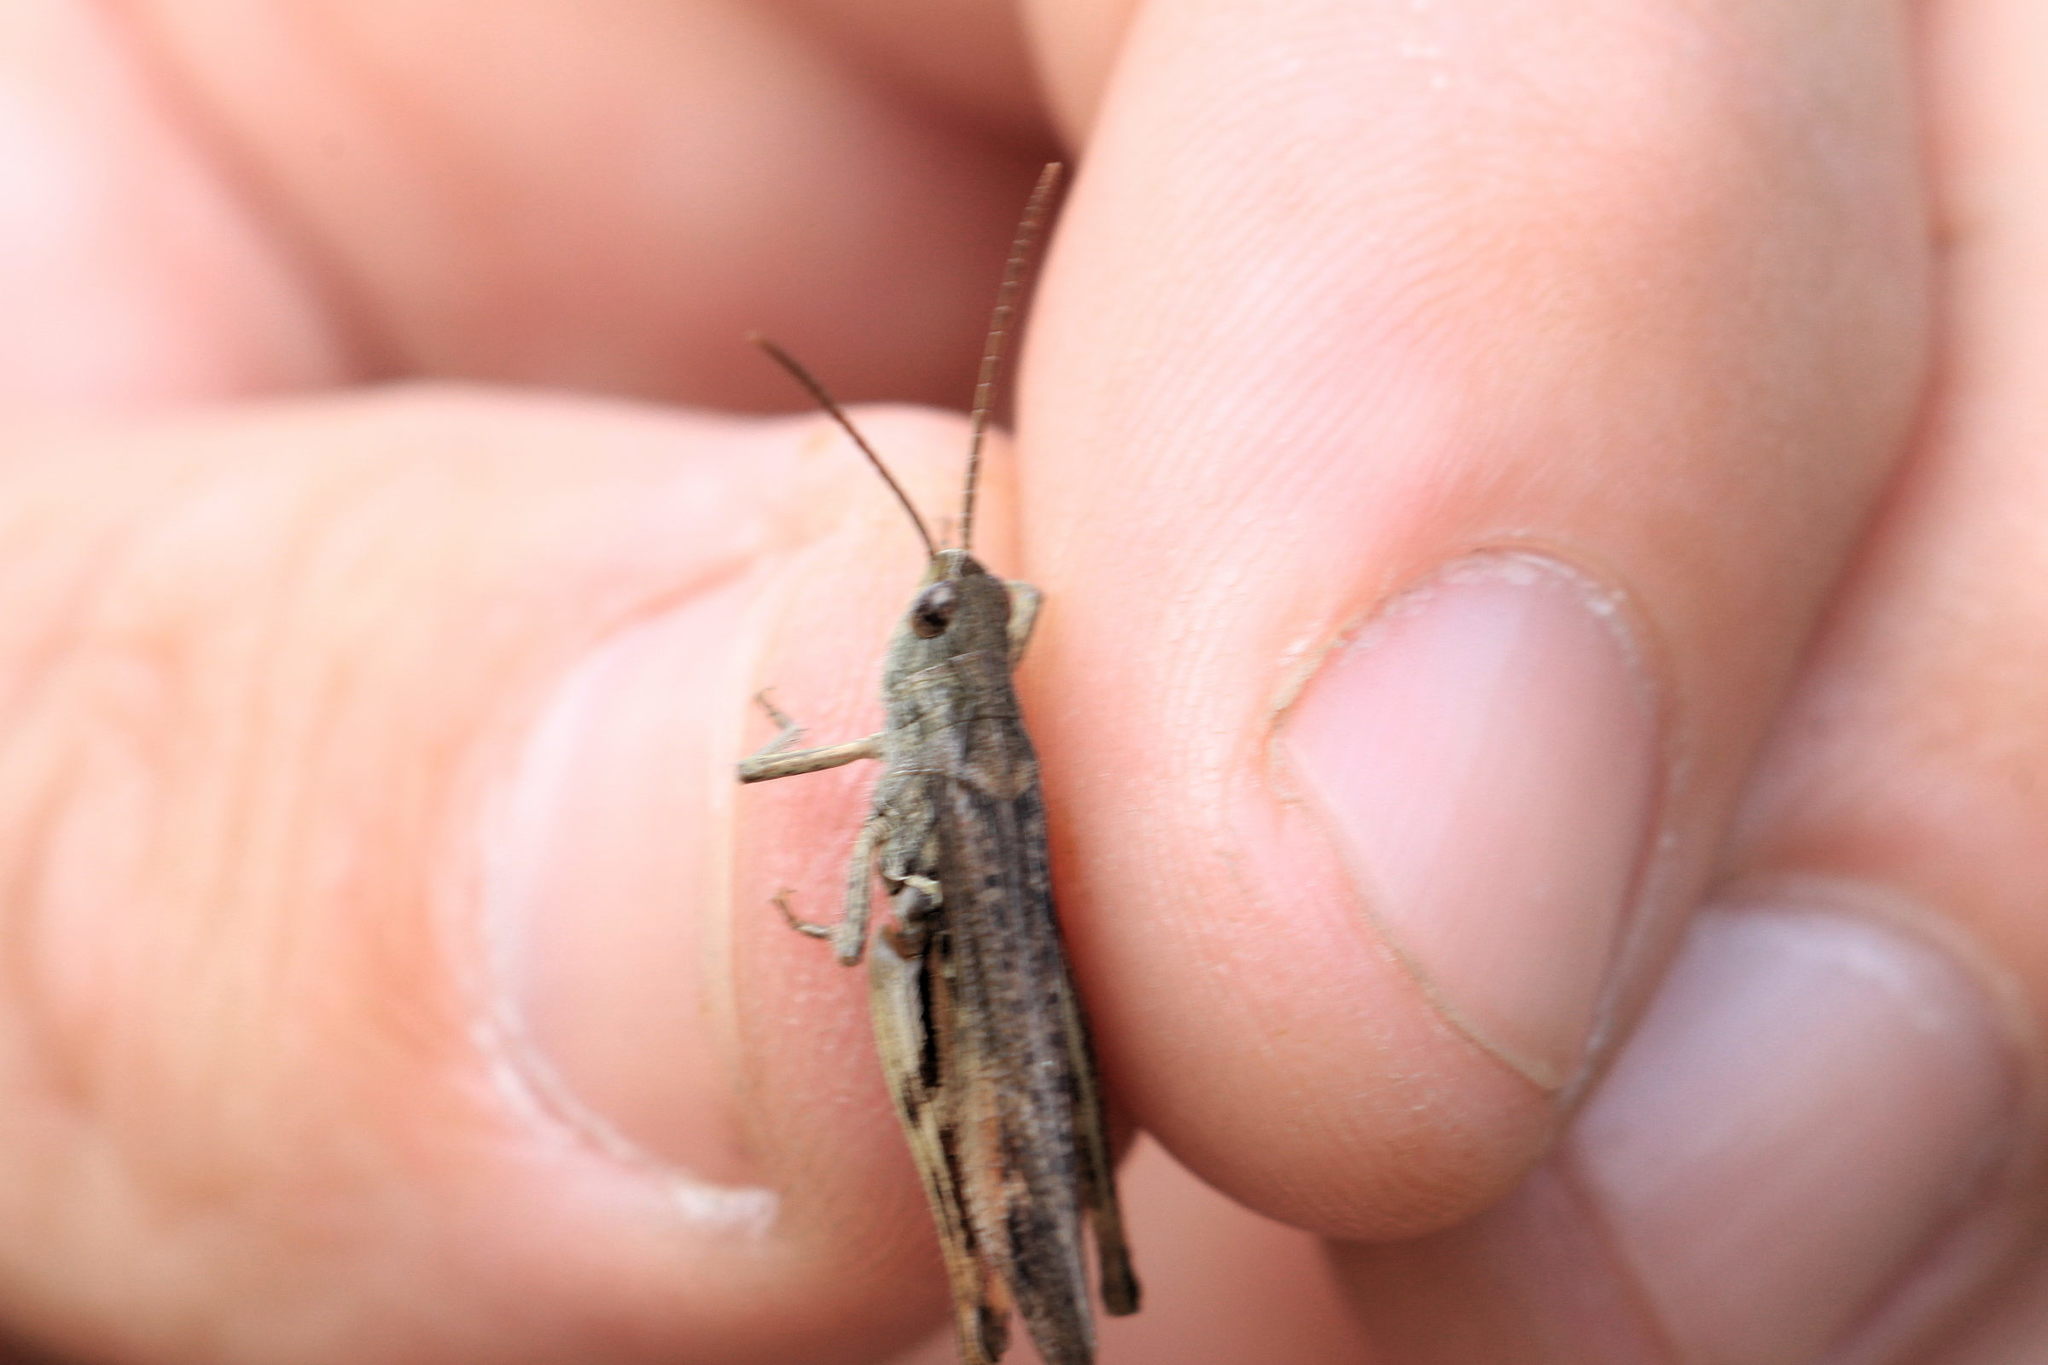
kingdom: Animalia
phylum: Arthropoda
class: Insecta
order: Orthoptera
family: Acrididae
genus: Chorthippus
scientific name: Chorthippus biguttulus
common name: Bow-winged grasshopper
